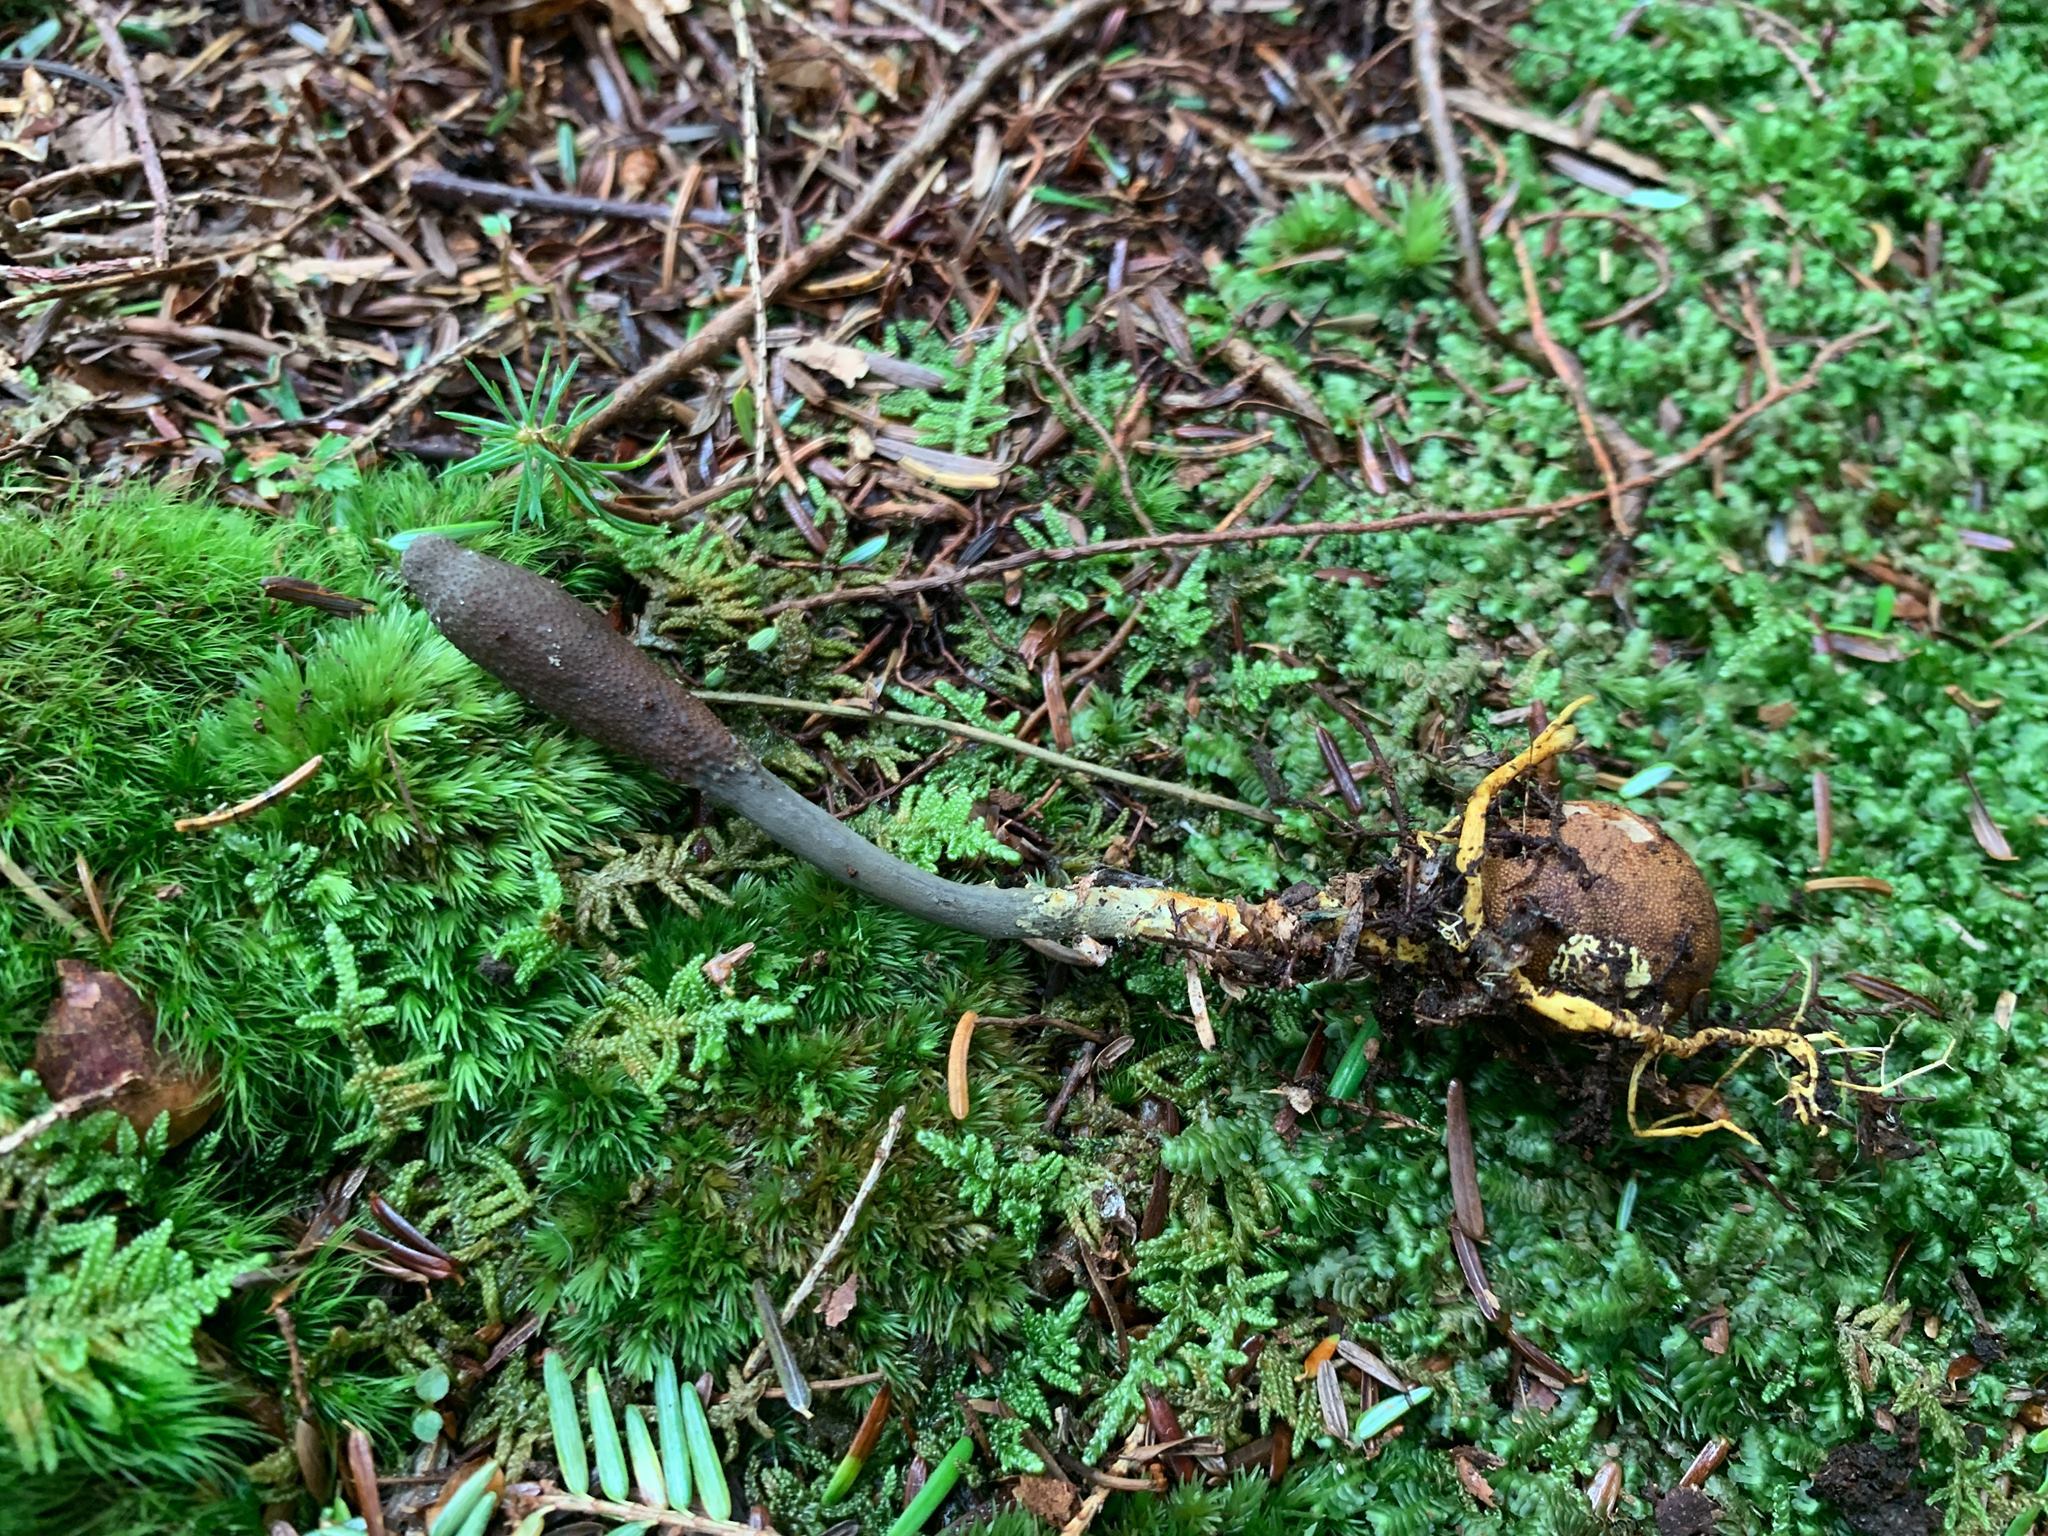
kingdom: Fungi
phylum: Ascomycota
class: Sordariomycetes
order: Hypocreales
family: Ophiocordycipitaceae
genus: Tolypocladium
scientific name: Tolypocladium ophioglossoides
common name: Snaketongue truffleclub
